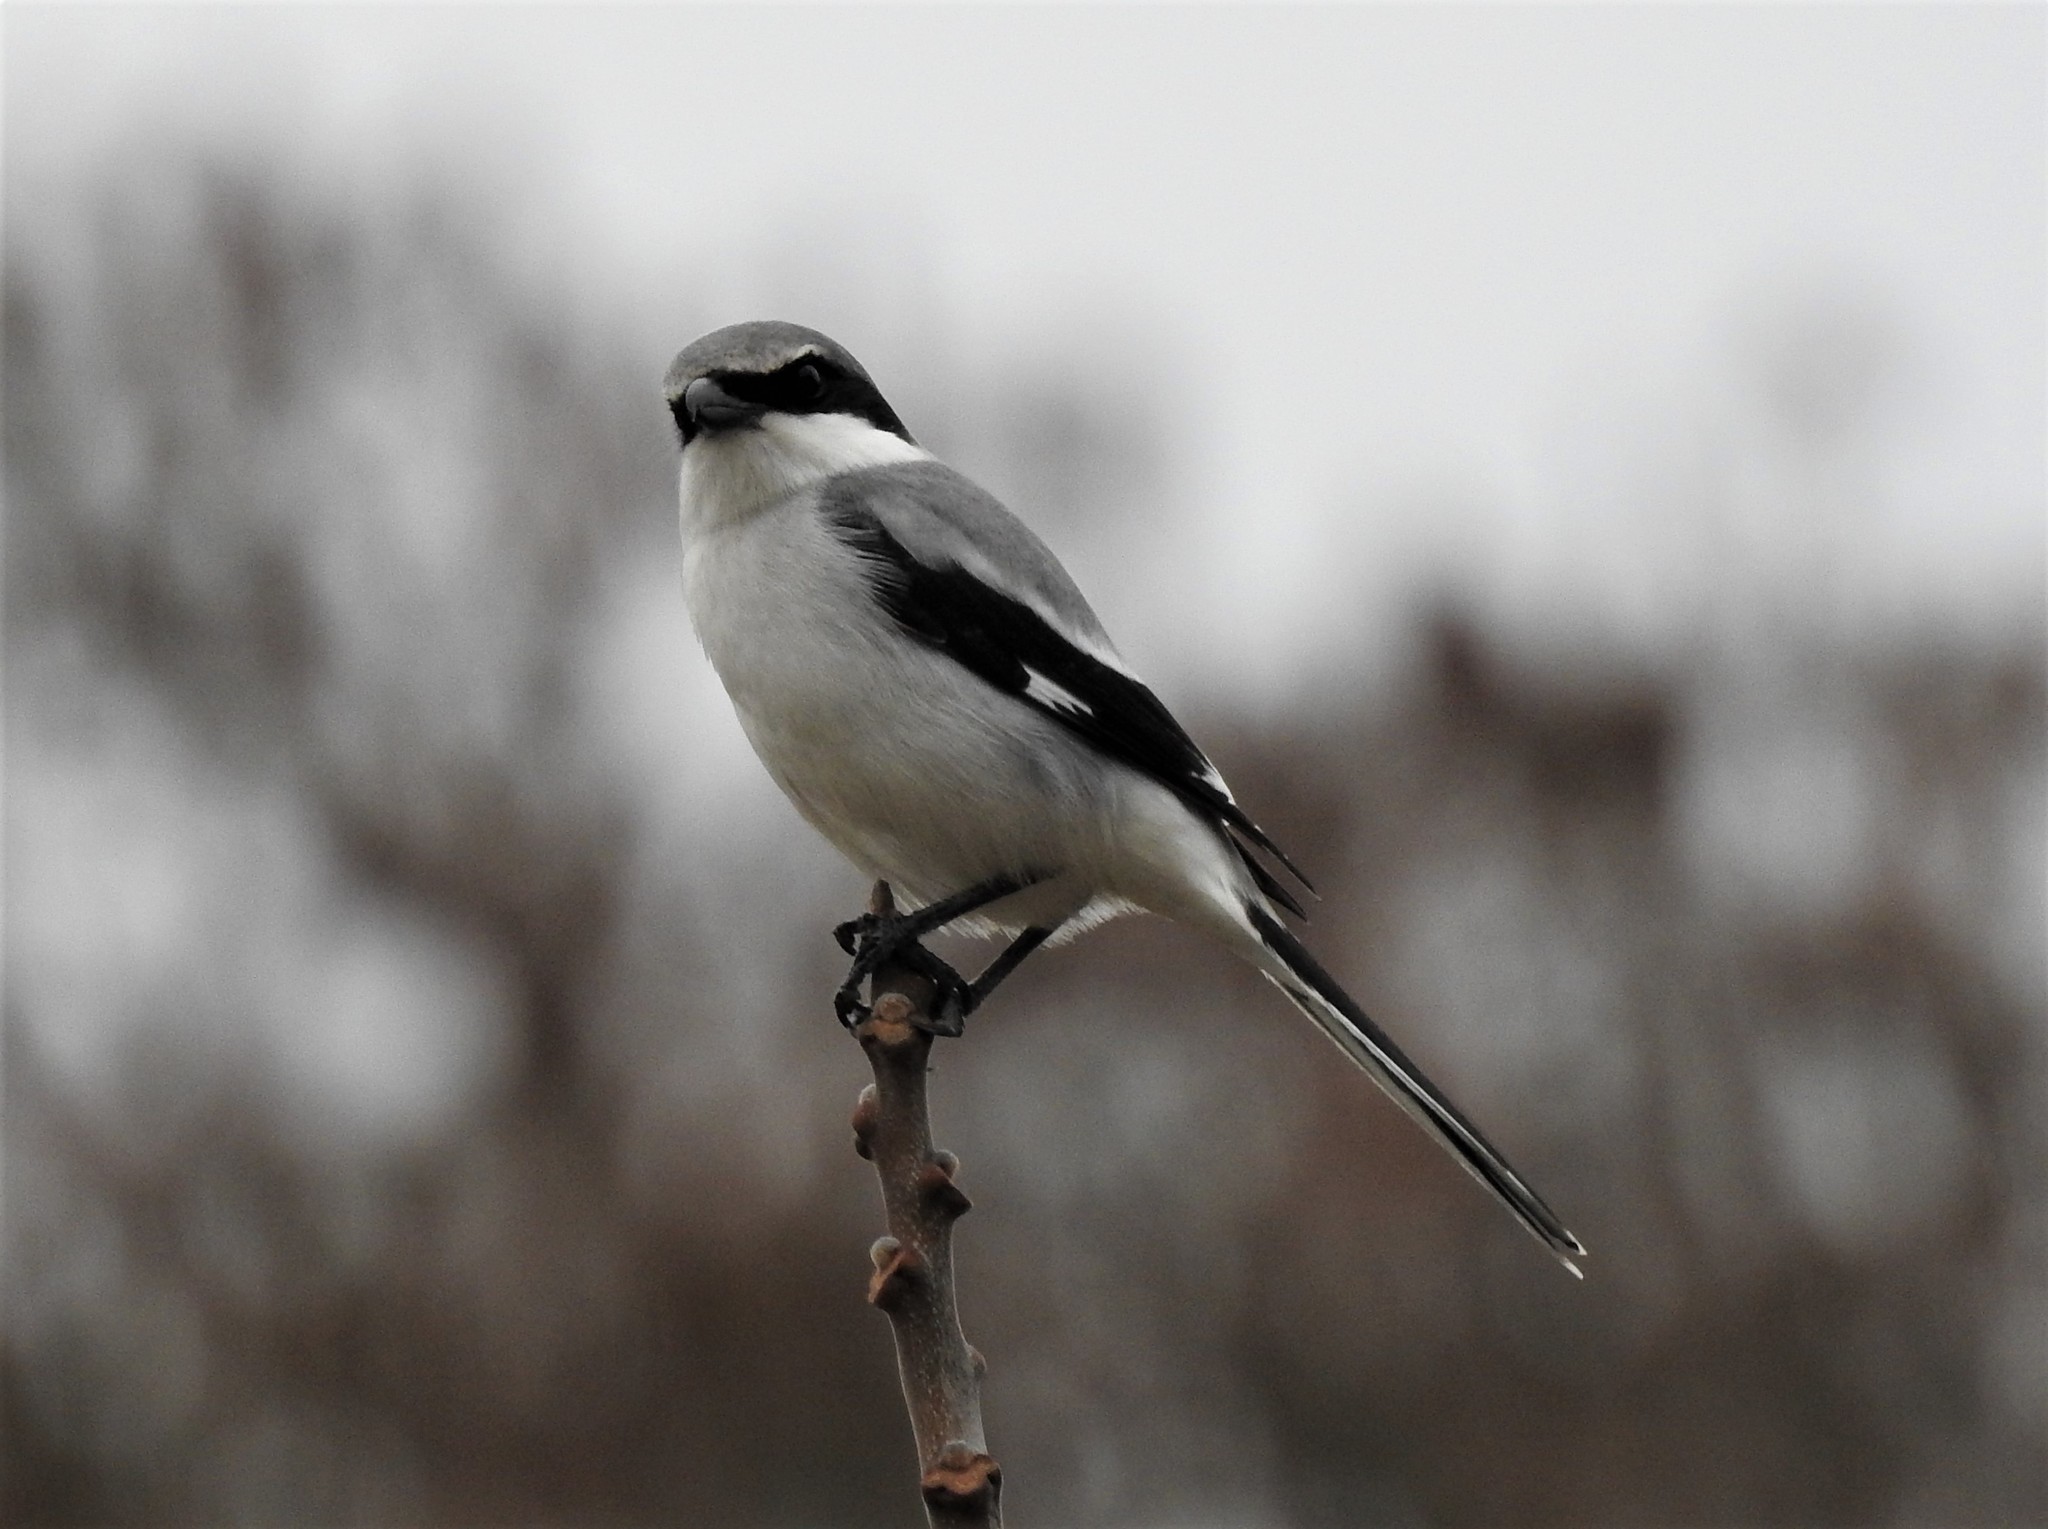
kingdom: Animalia
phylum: Chordata
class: Aves
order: Passeriformes
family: Laniidae
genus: Lanius
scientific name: Lanius ludovicianus
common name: Loggerhead shrike
